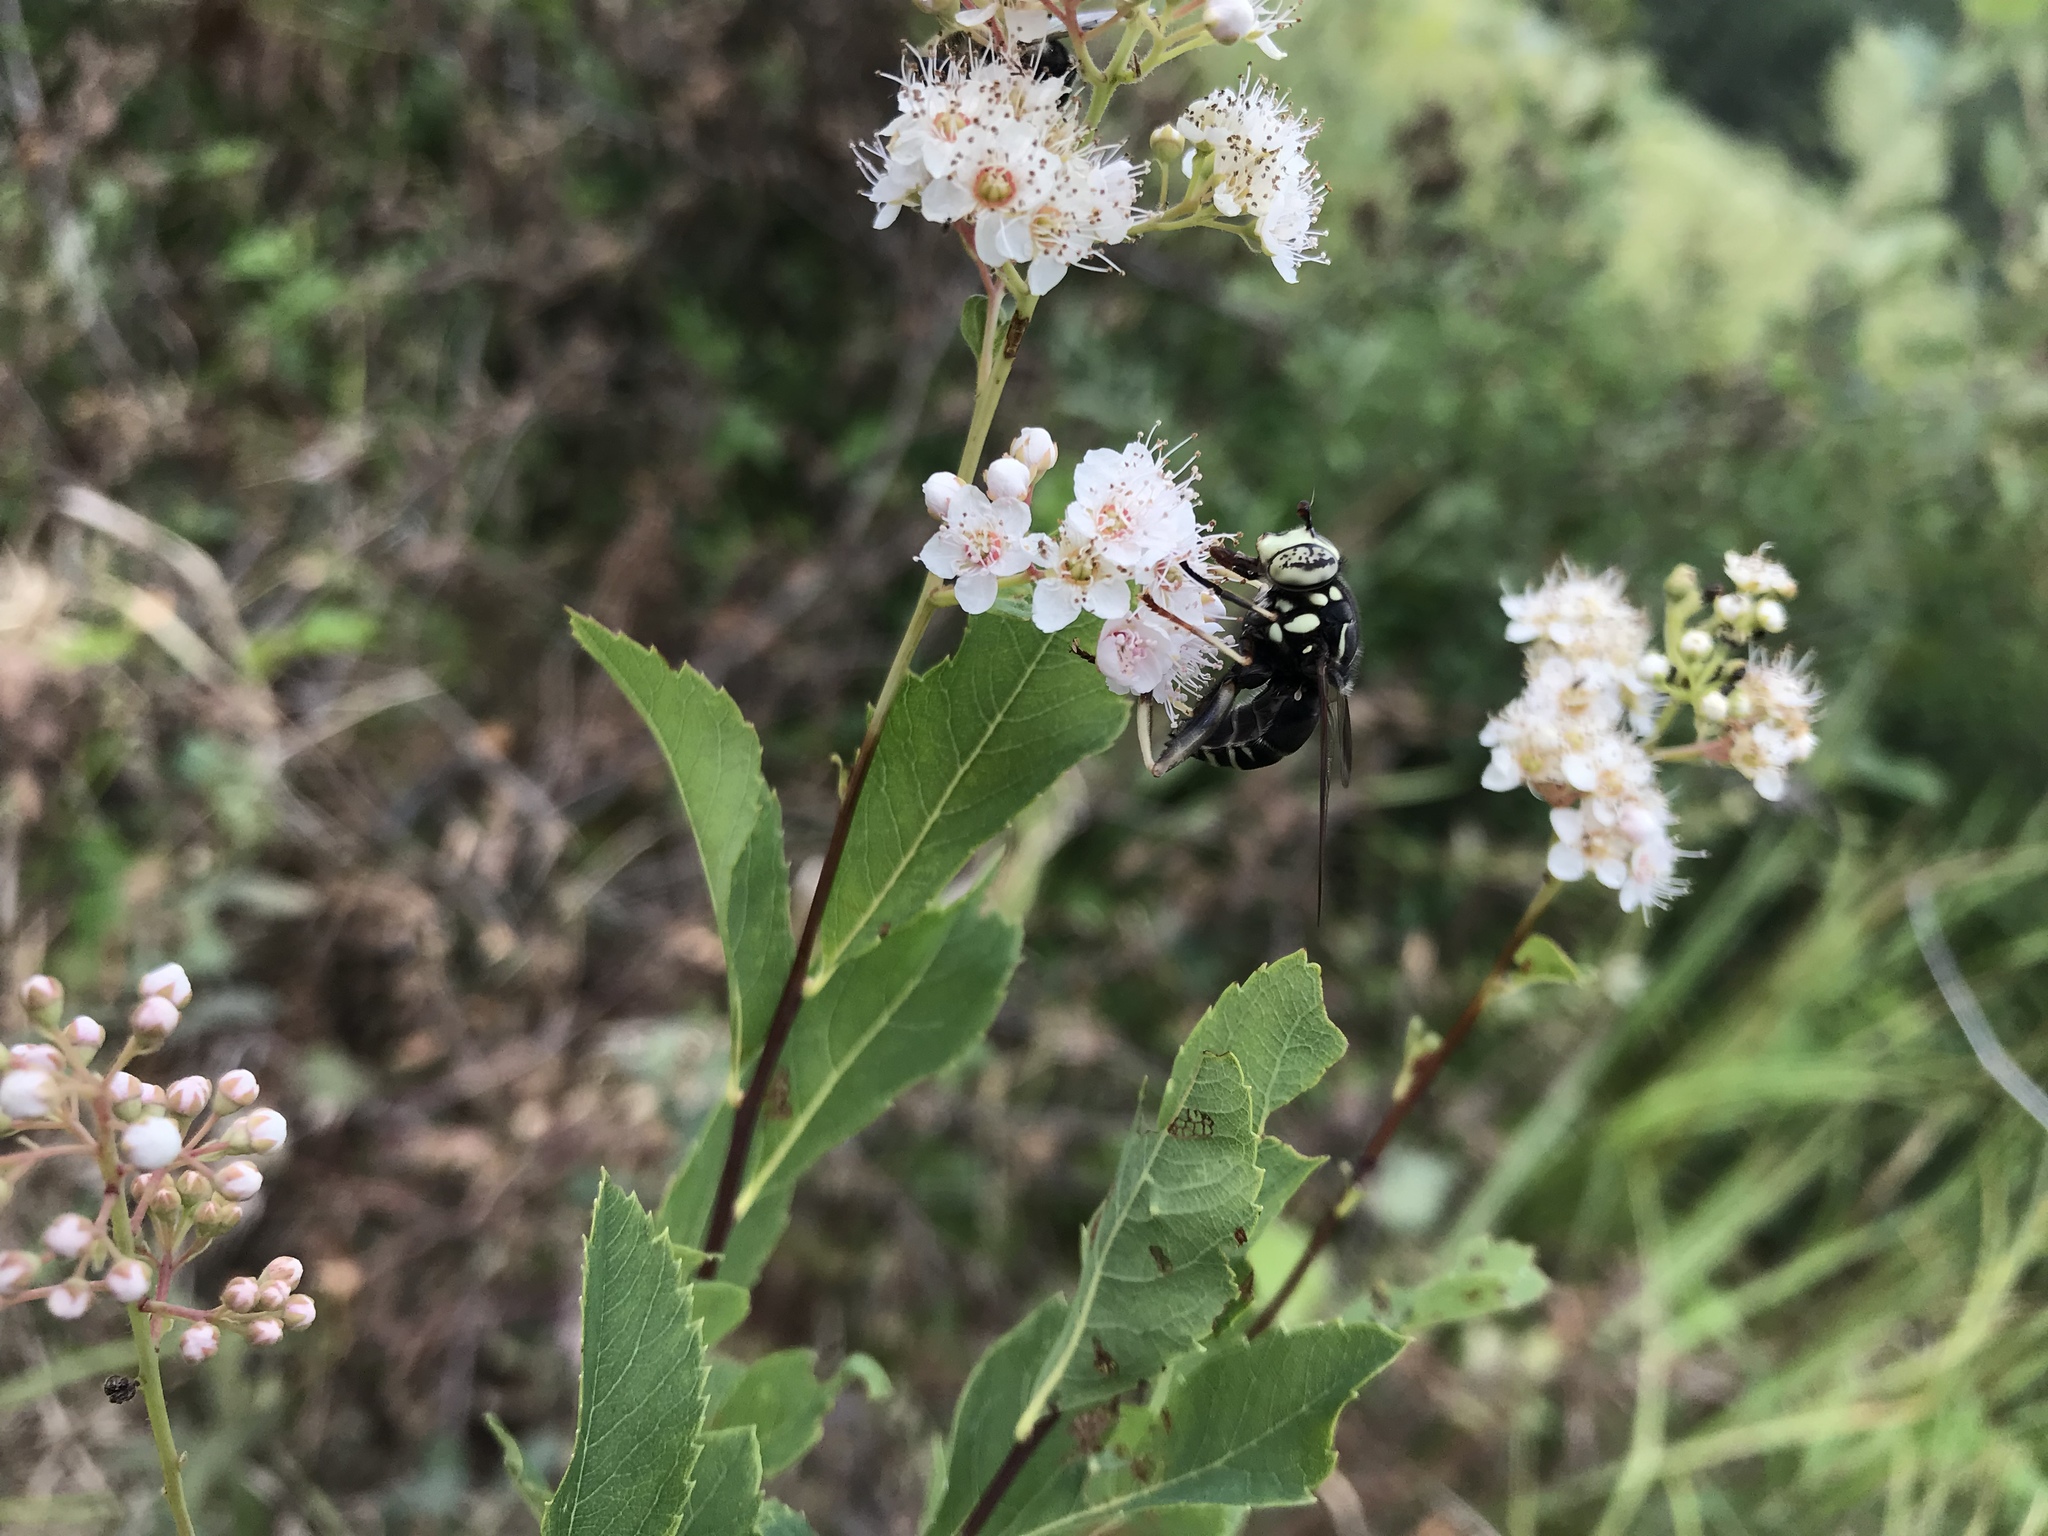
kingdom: Animalia
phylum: Arthropoda
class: Insecta
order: Diptera
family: Syrphidae
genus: Spilomyia
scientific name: Spilomyia fusca
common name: Bald-faced hornet fly
